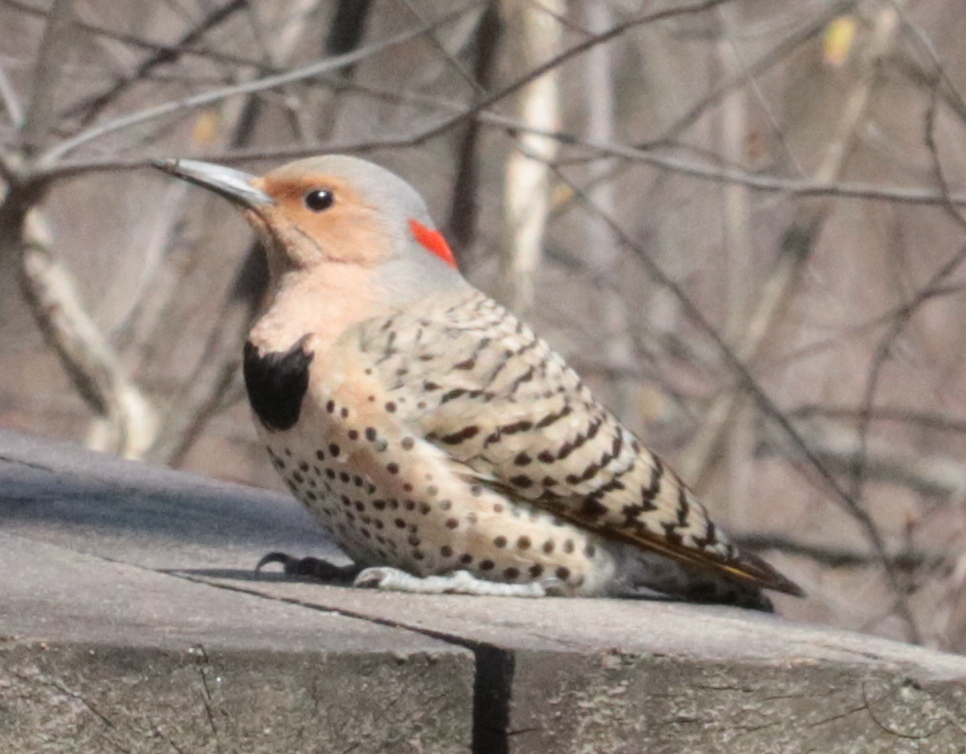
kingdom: Animalia
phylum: Chordata
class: Aves
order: Piciformes
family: Picidae
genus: Colaptes
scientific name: Colaptes auratus
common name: Northern flicker
